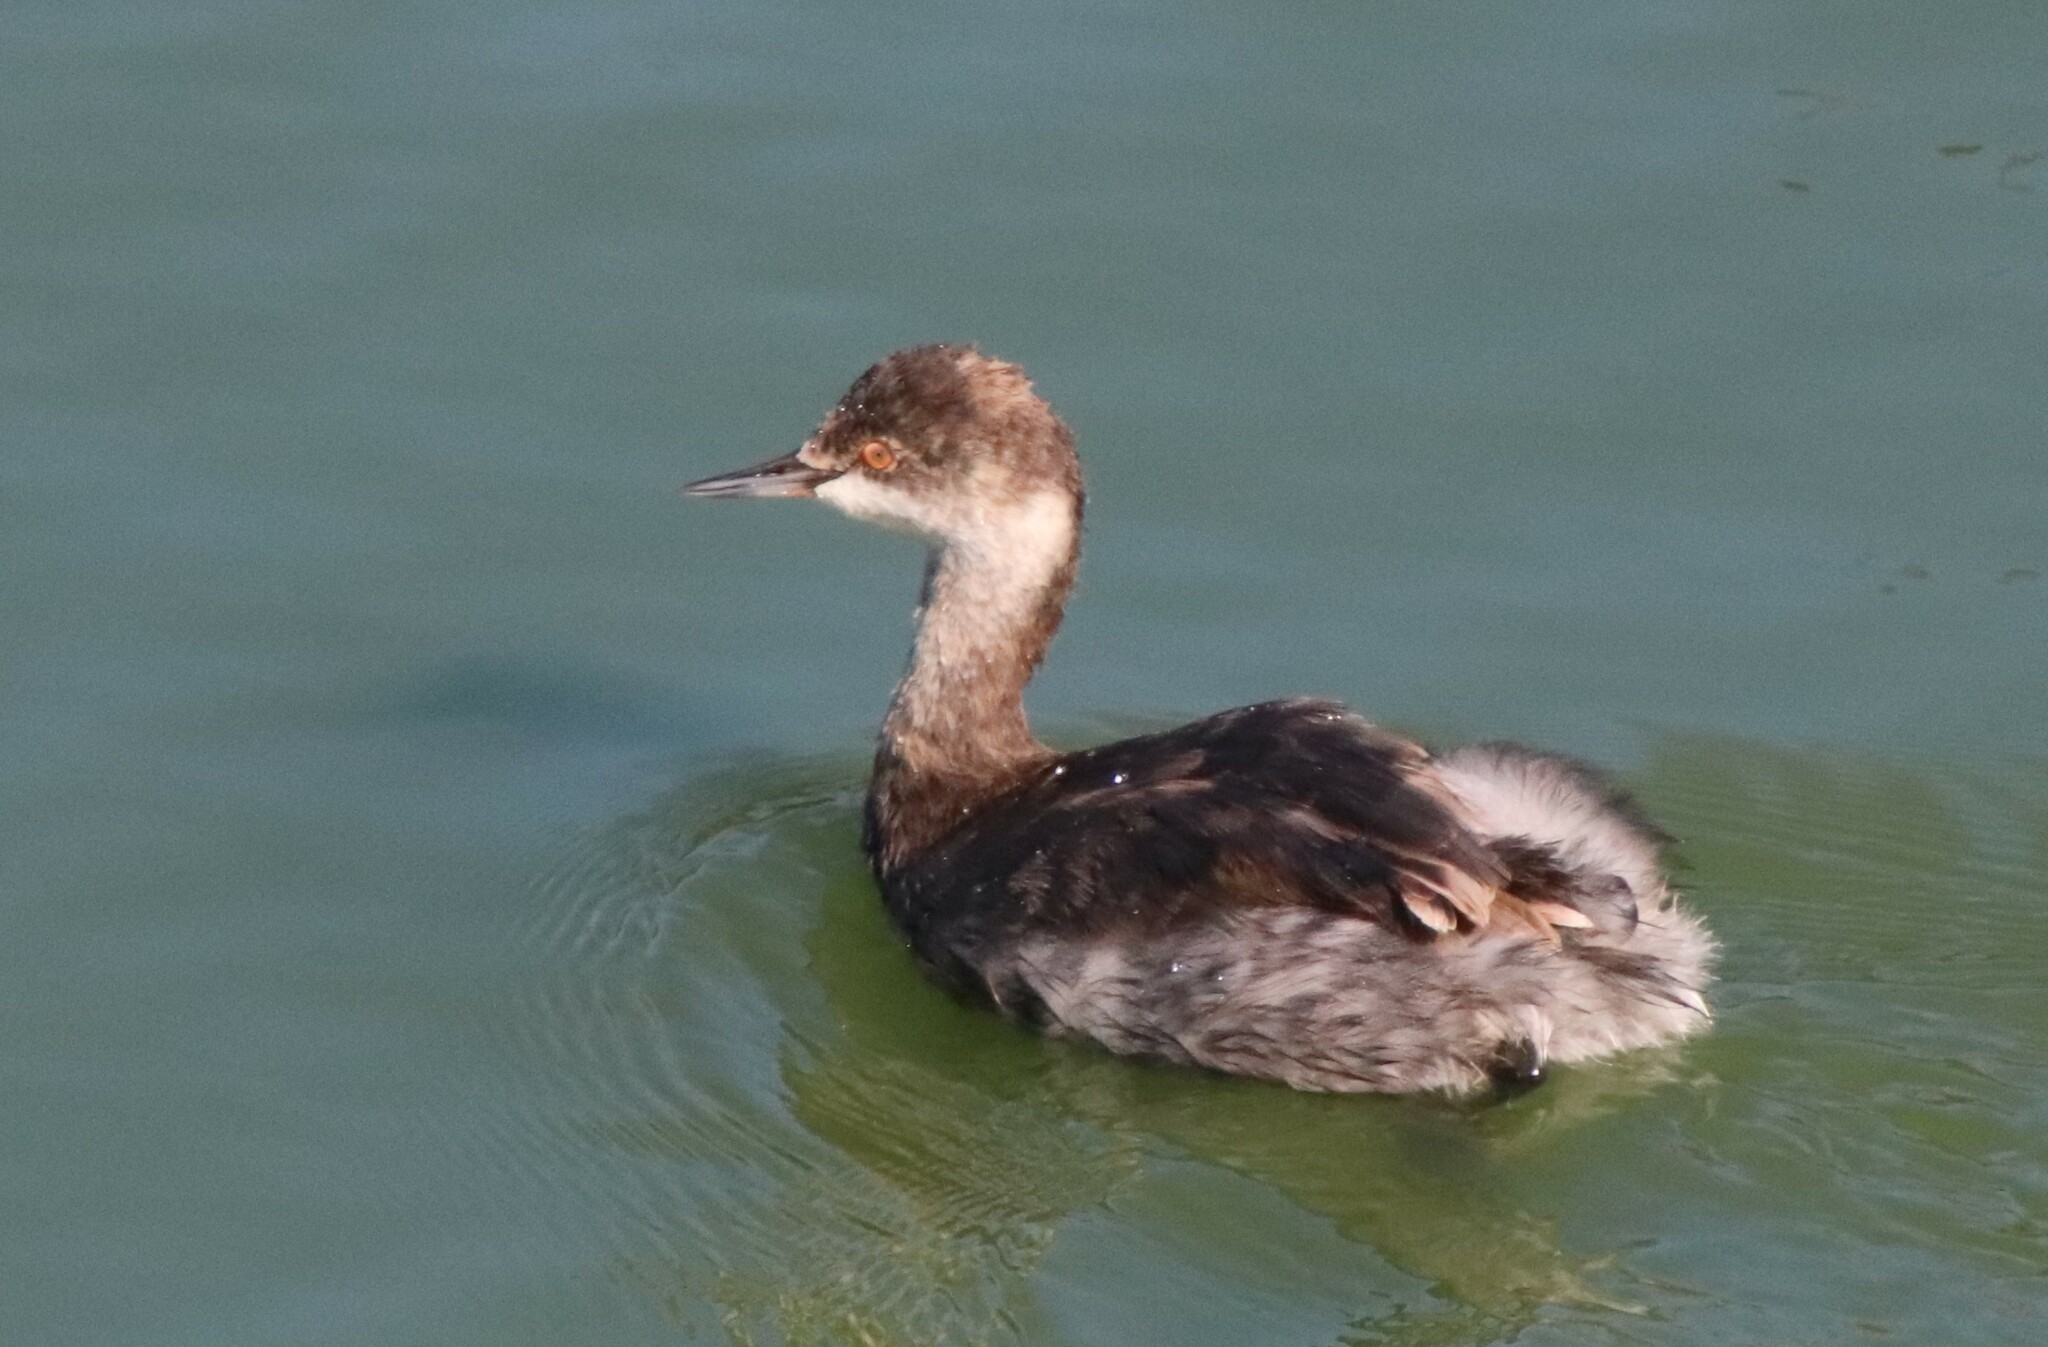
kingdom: Animalia
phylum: Chordata
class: Aves
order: Podicipediformes
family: Podicipedidae
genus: Podiceps
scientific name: Podiceps nigricollis
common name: Black-necked grebe
